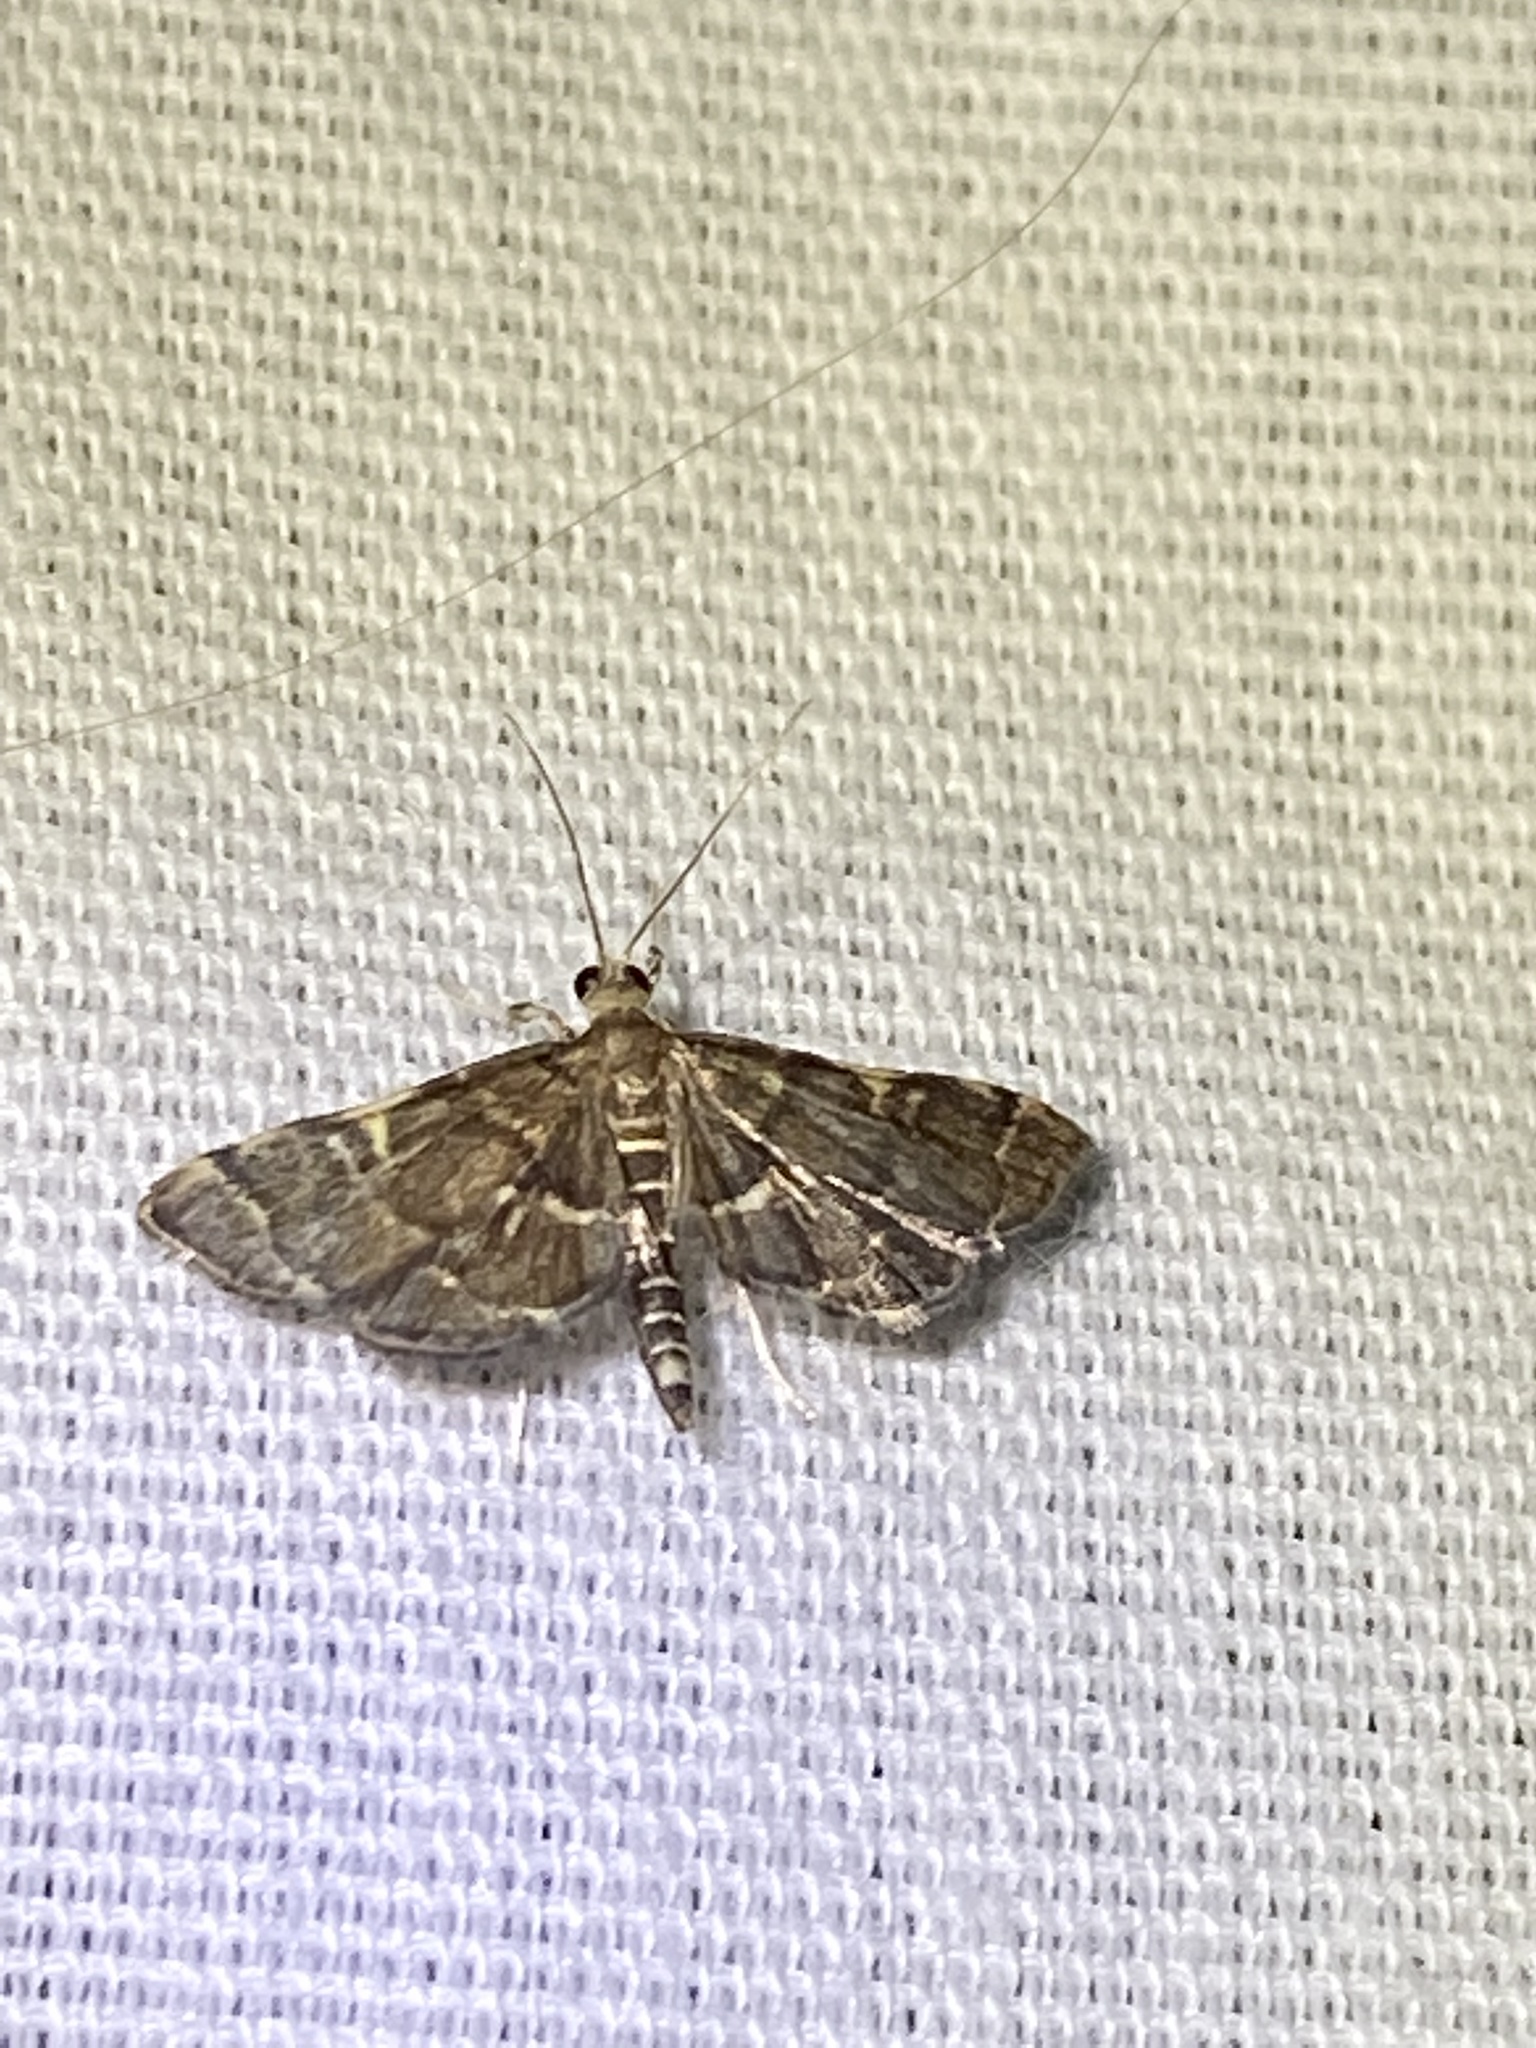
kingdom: Animalia
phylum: Arthropoda
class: Insecta
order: Lepidoptera
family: Crambidae
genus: Anageshna
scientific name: Anageshna primordialis
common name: Yellow-spotted webworm moth
